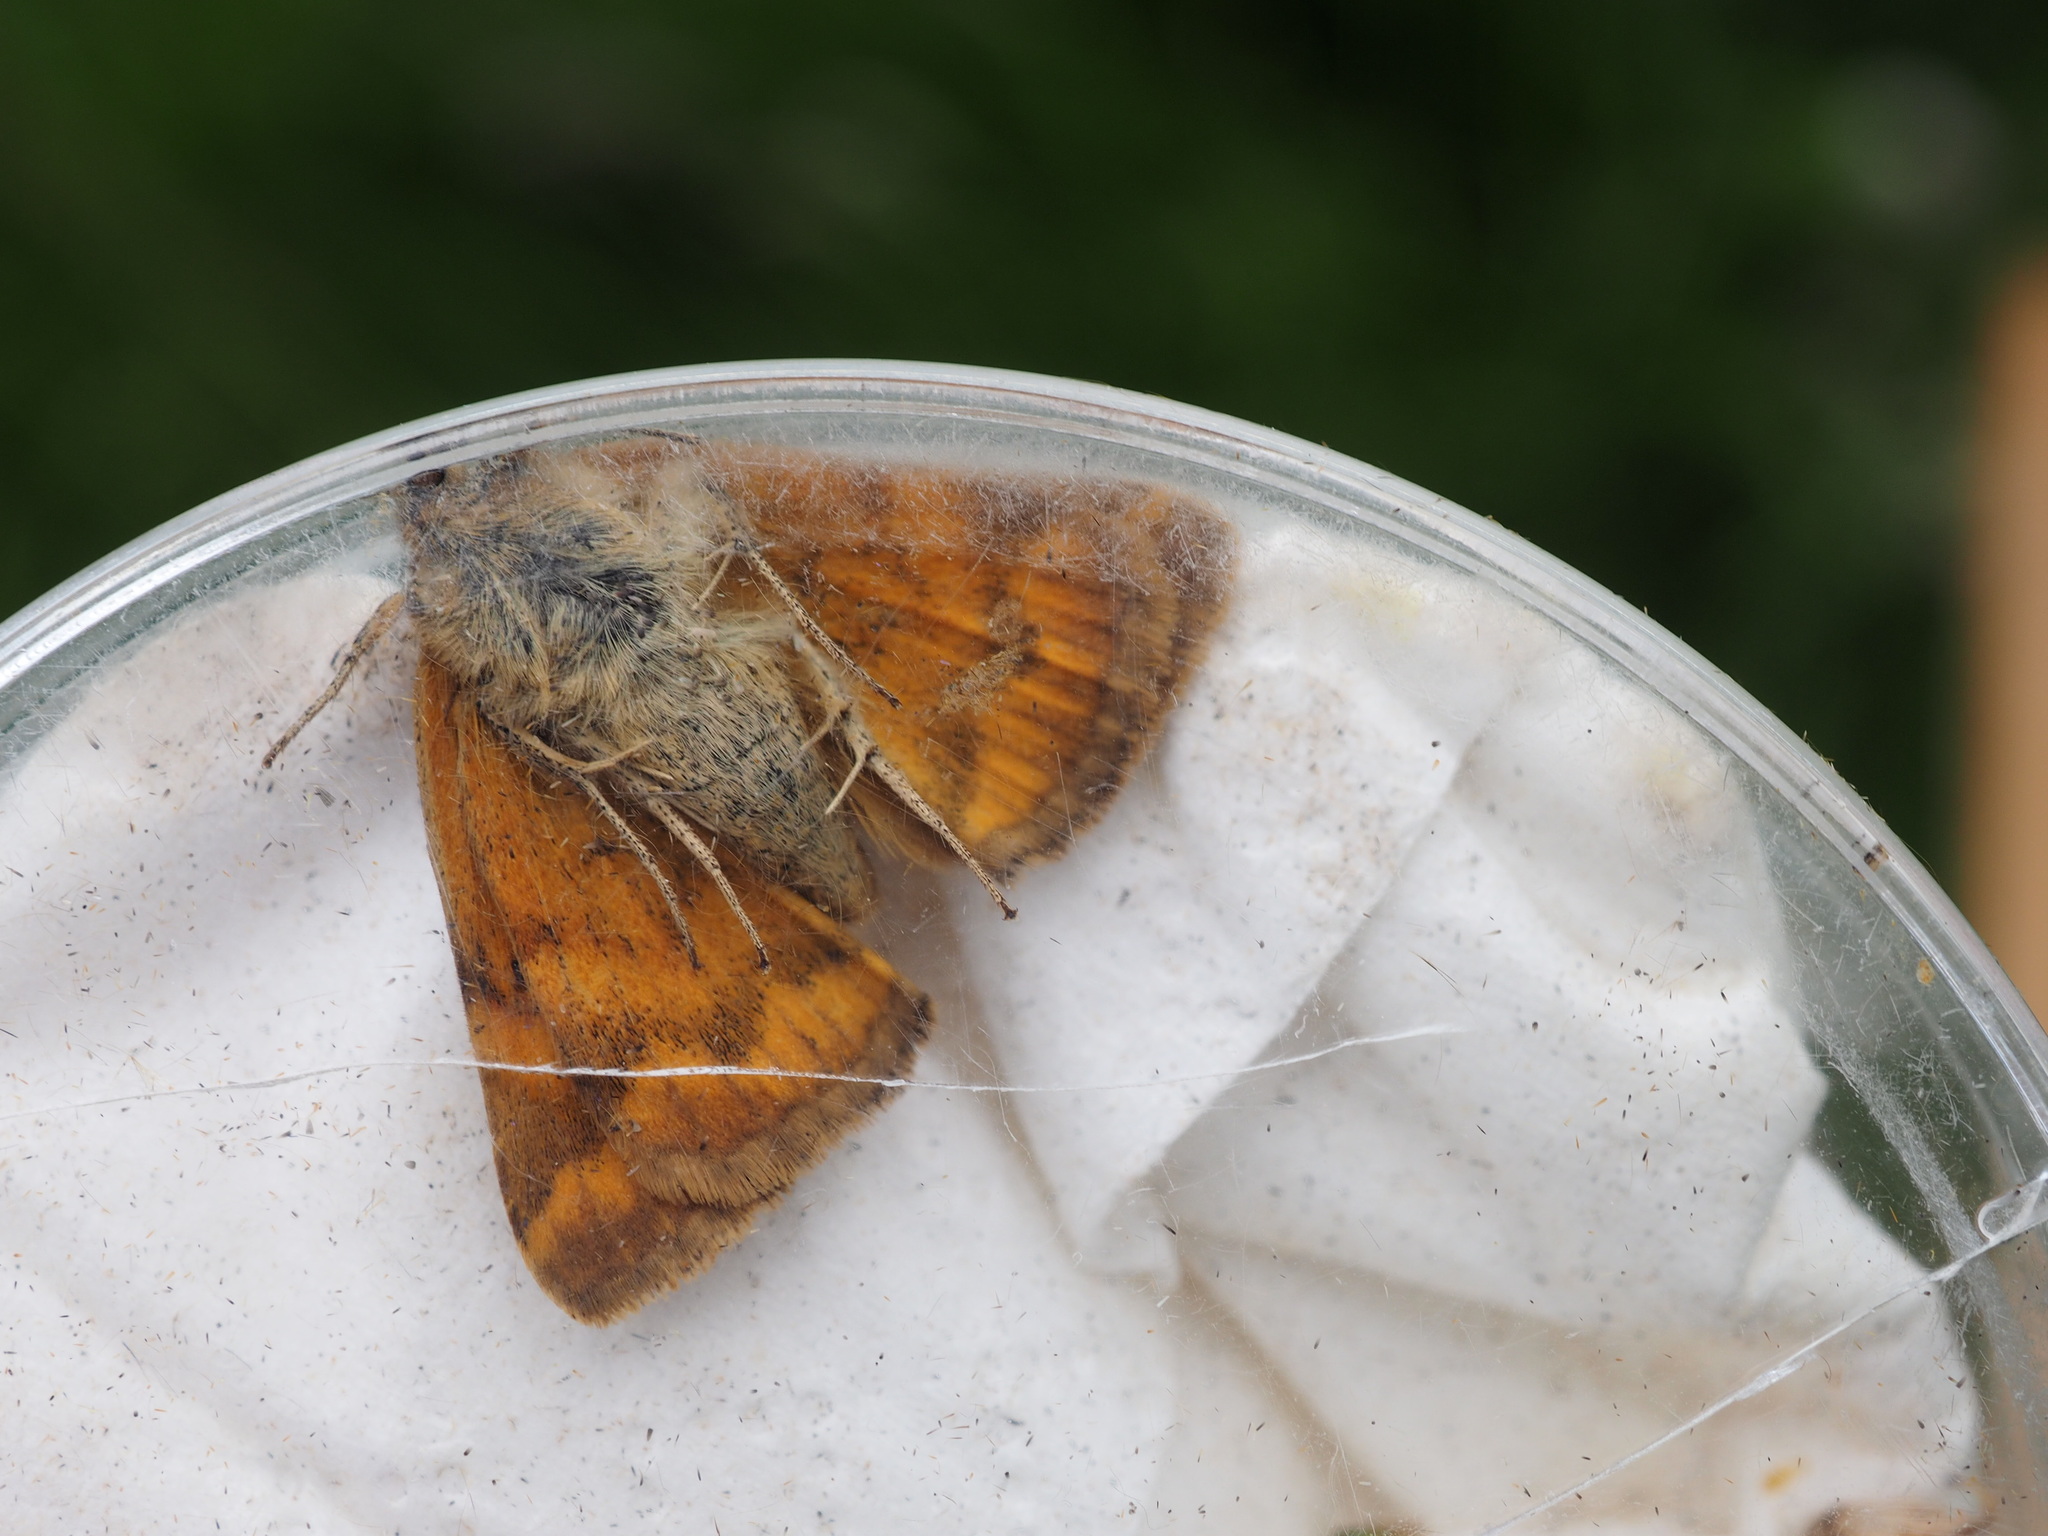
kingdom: Animalia
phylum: Arthropoda
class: Insecta
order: Lepidoptera
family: Erebidae
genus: Euclidia
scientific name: Euclidia glyphica
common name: Burnet companion
